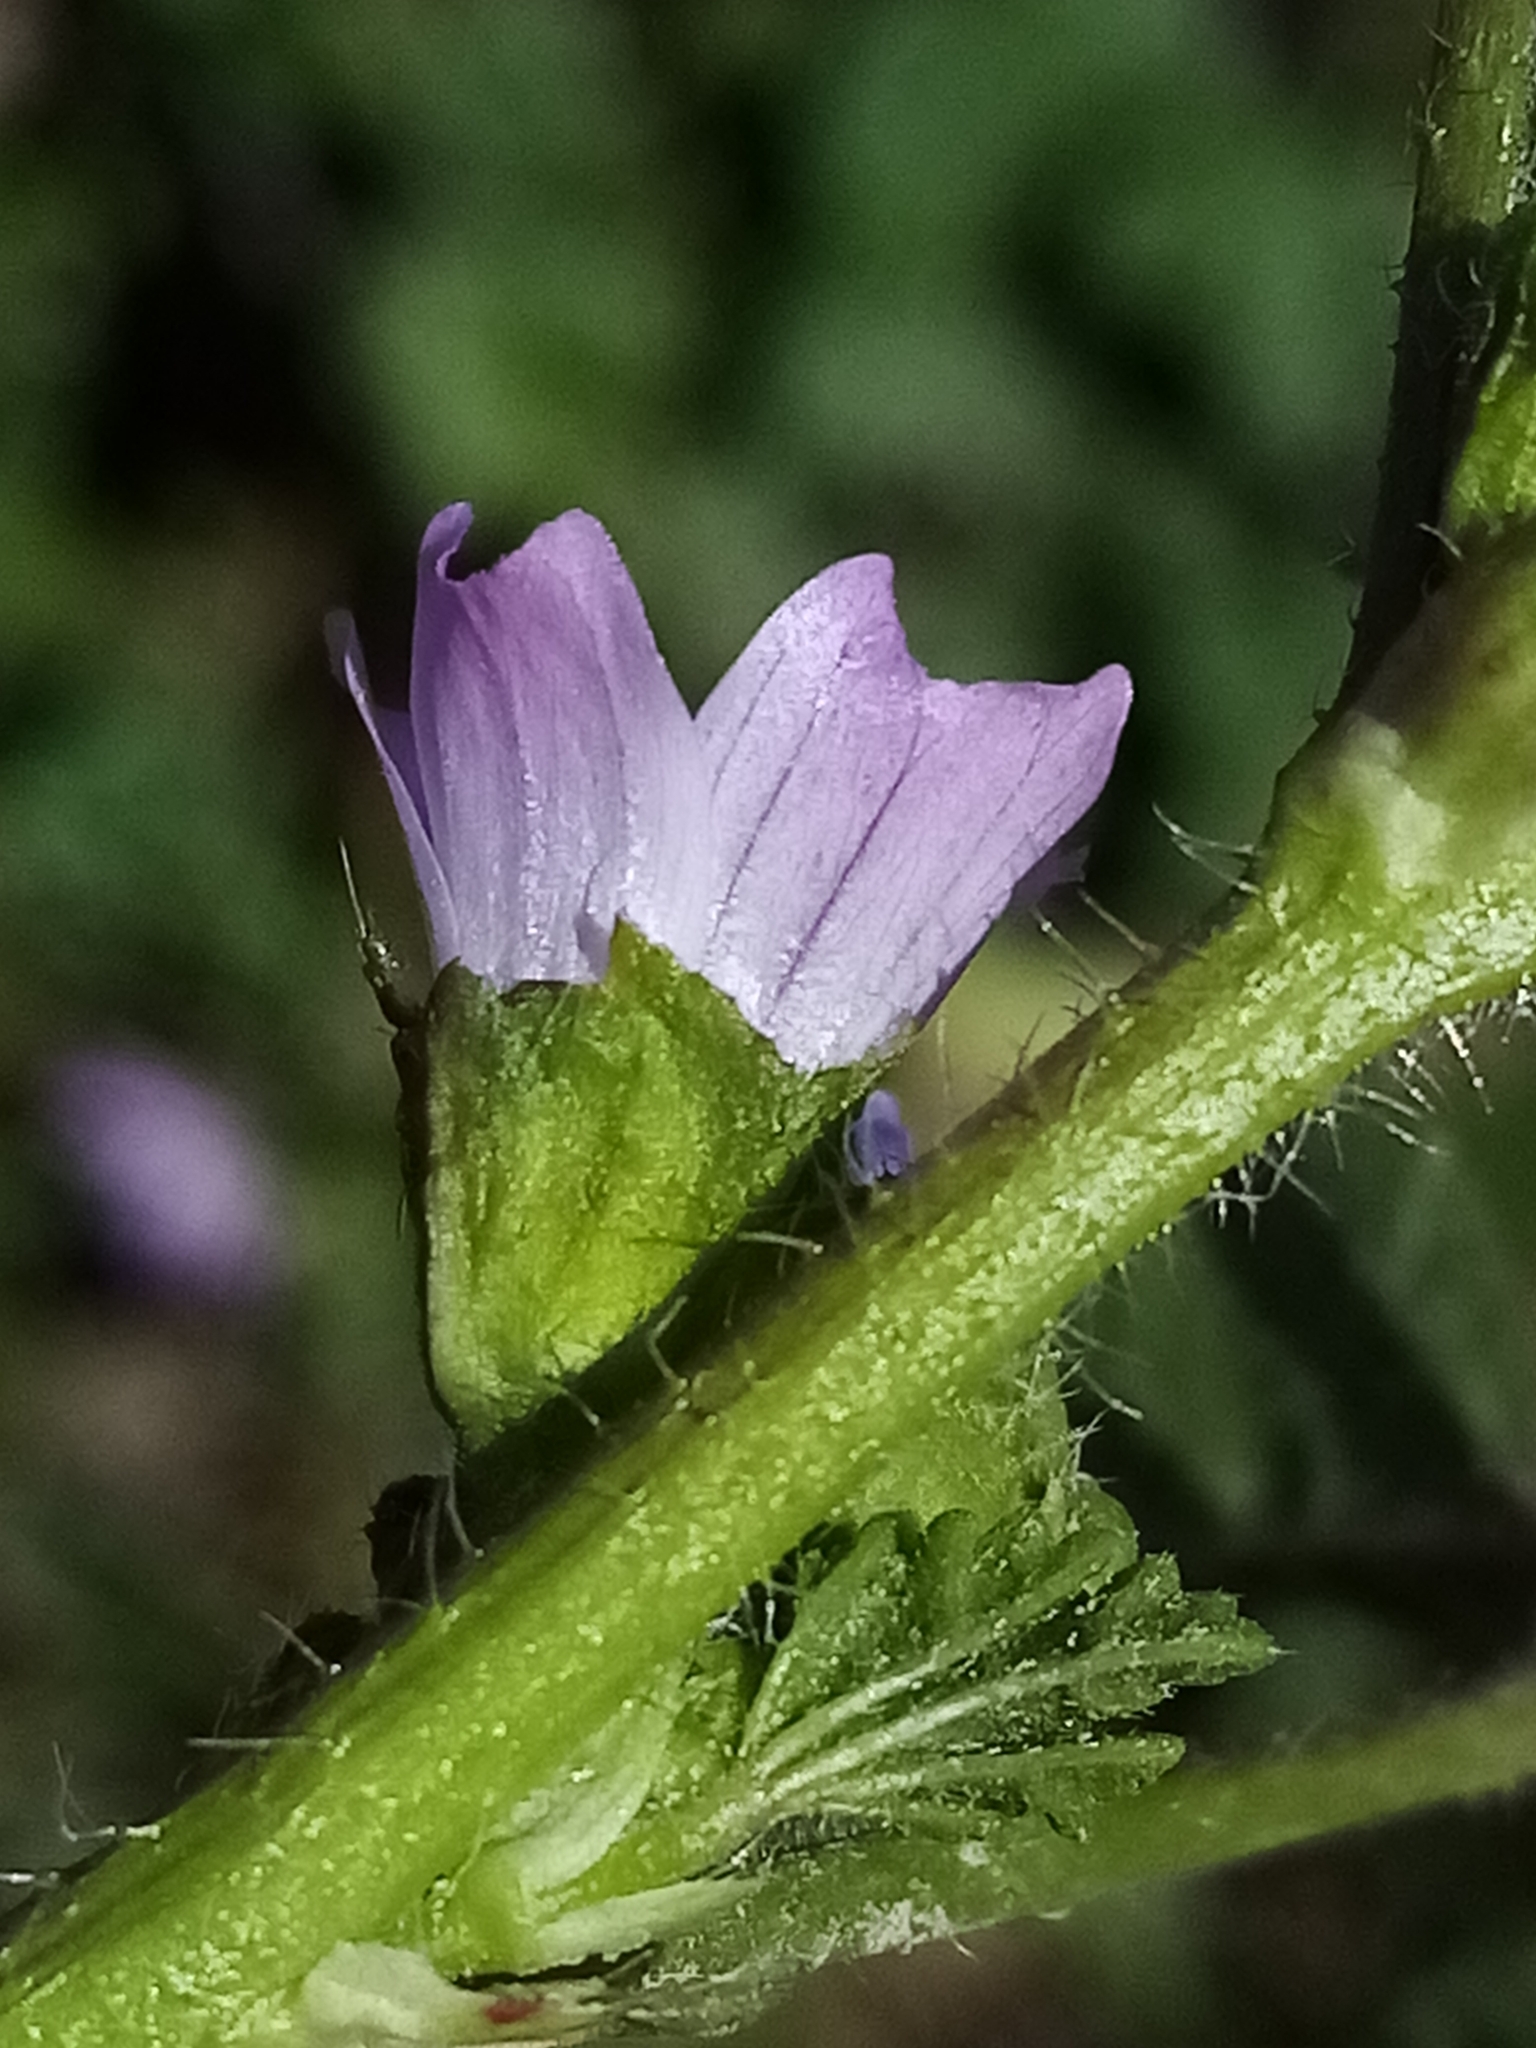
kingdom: Plantae
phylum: Tracheophyta
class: Magnoliopsida
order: Malvales
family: Malvaceae
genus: Malva
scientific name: Malva nicaeensis
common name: French mallow
